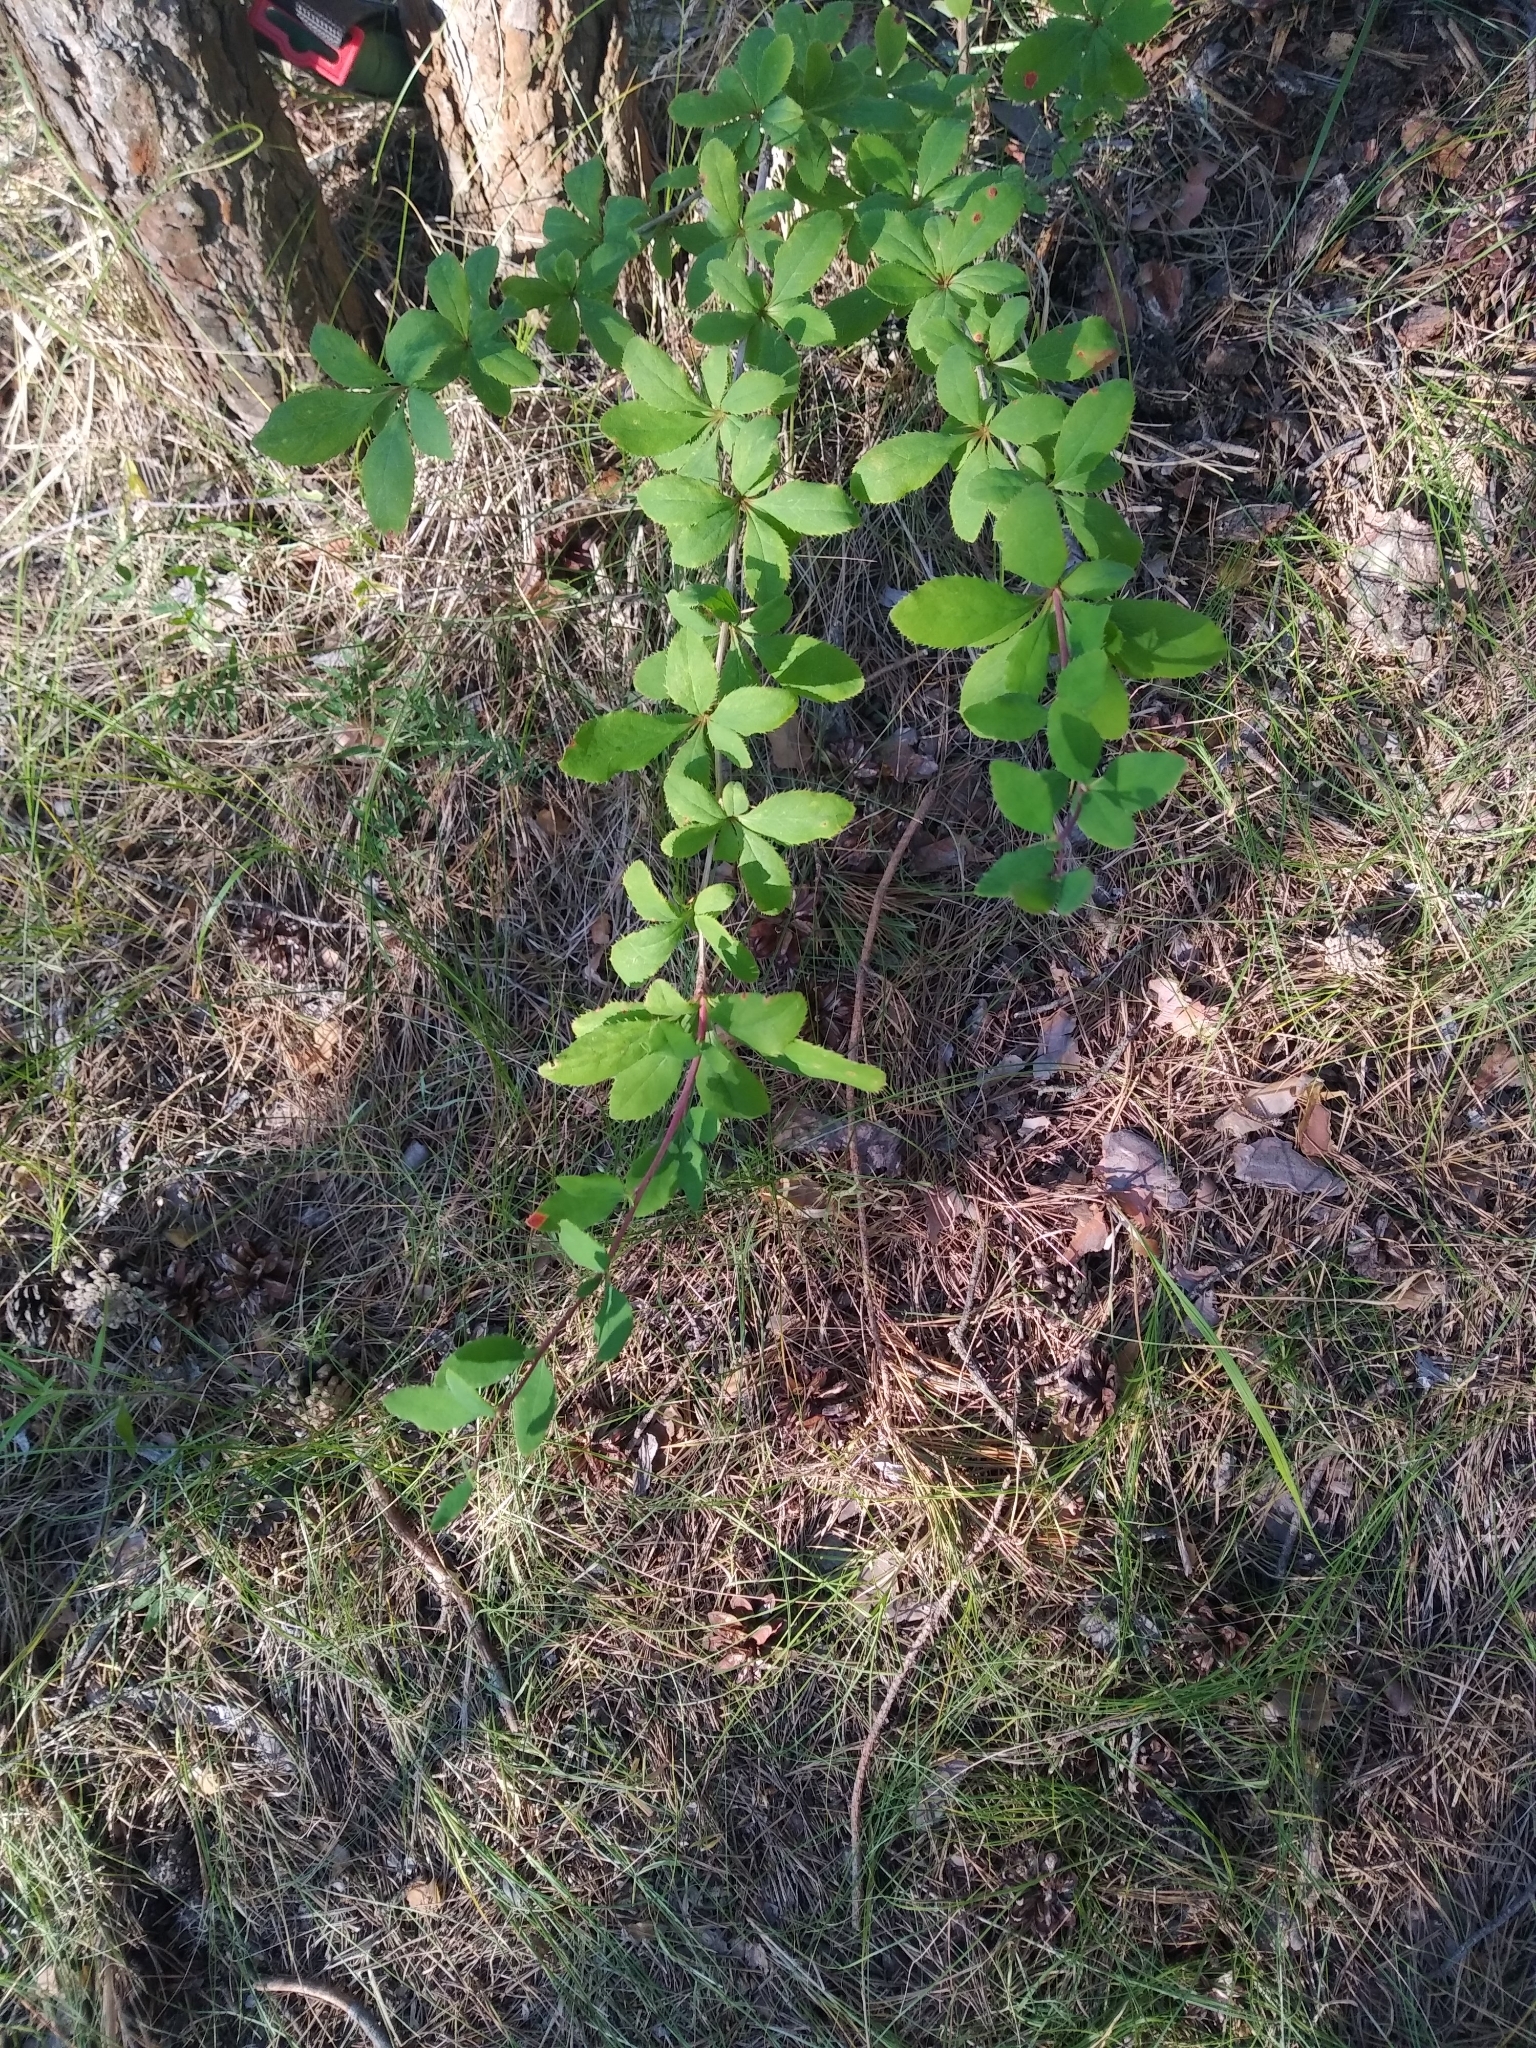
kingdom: Plantae
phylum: Tracheophyta
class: Magnoliopsida
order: Ranunculales
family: Berberidaceae
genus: Berberis
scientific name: Berberis vulgaris
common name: Barberry
